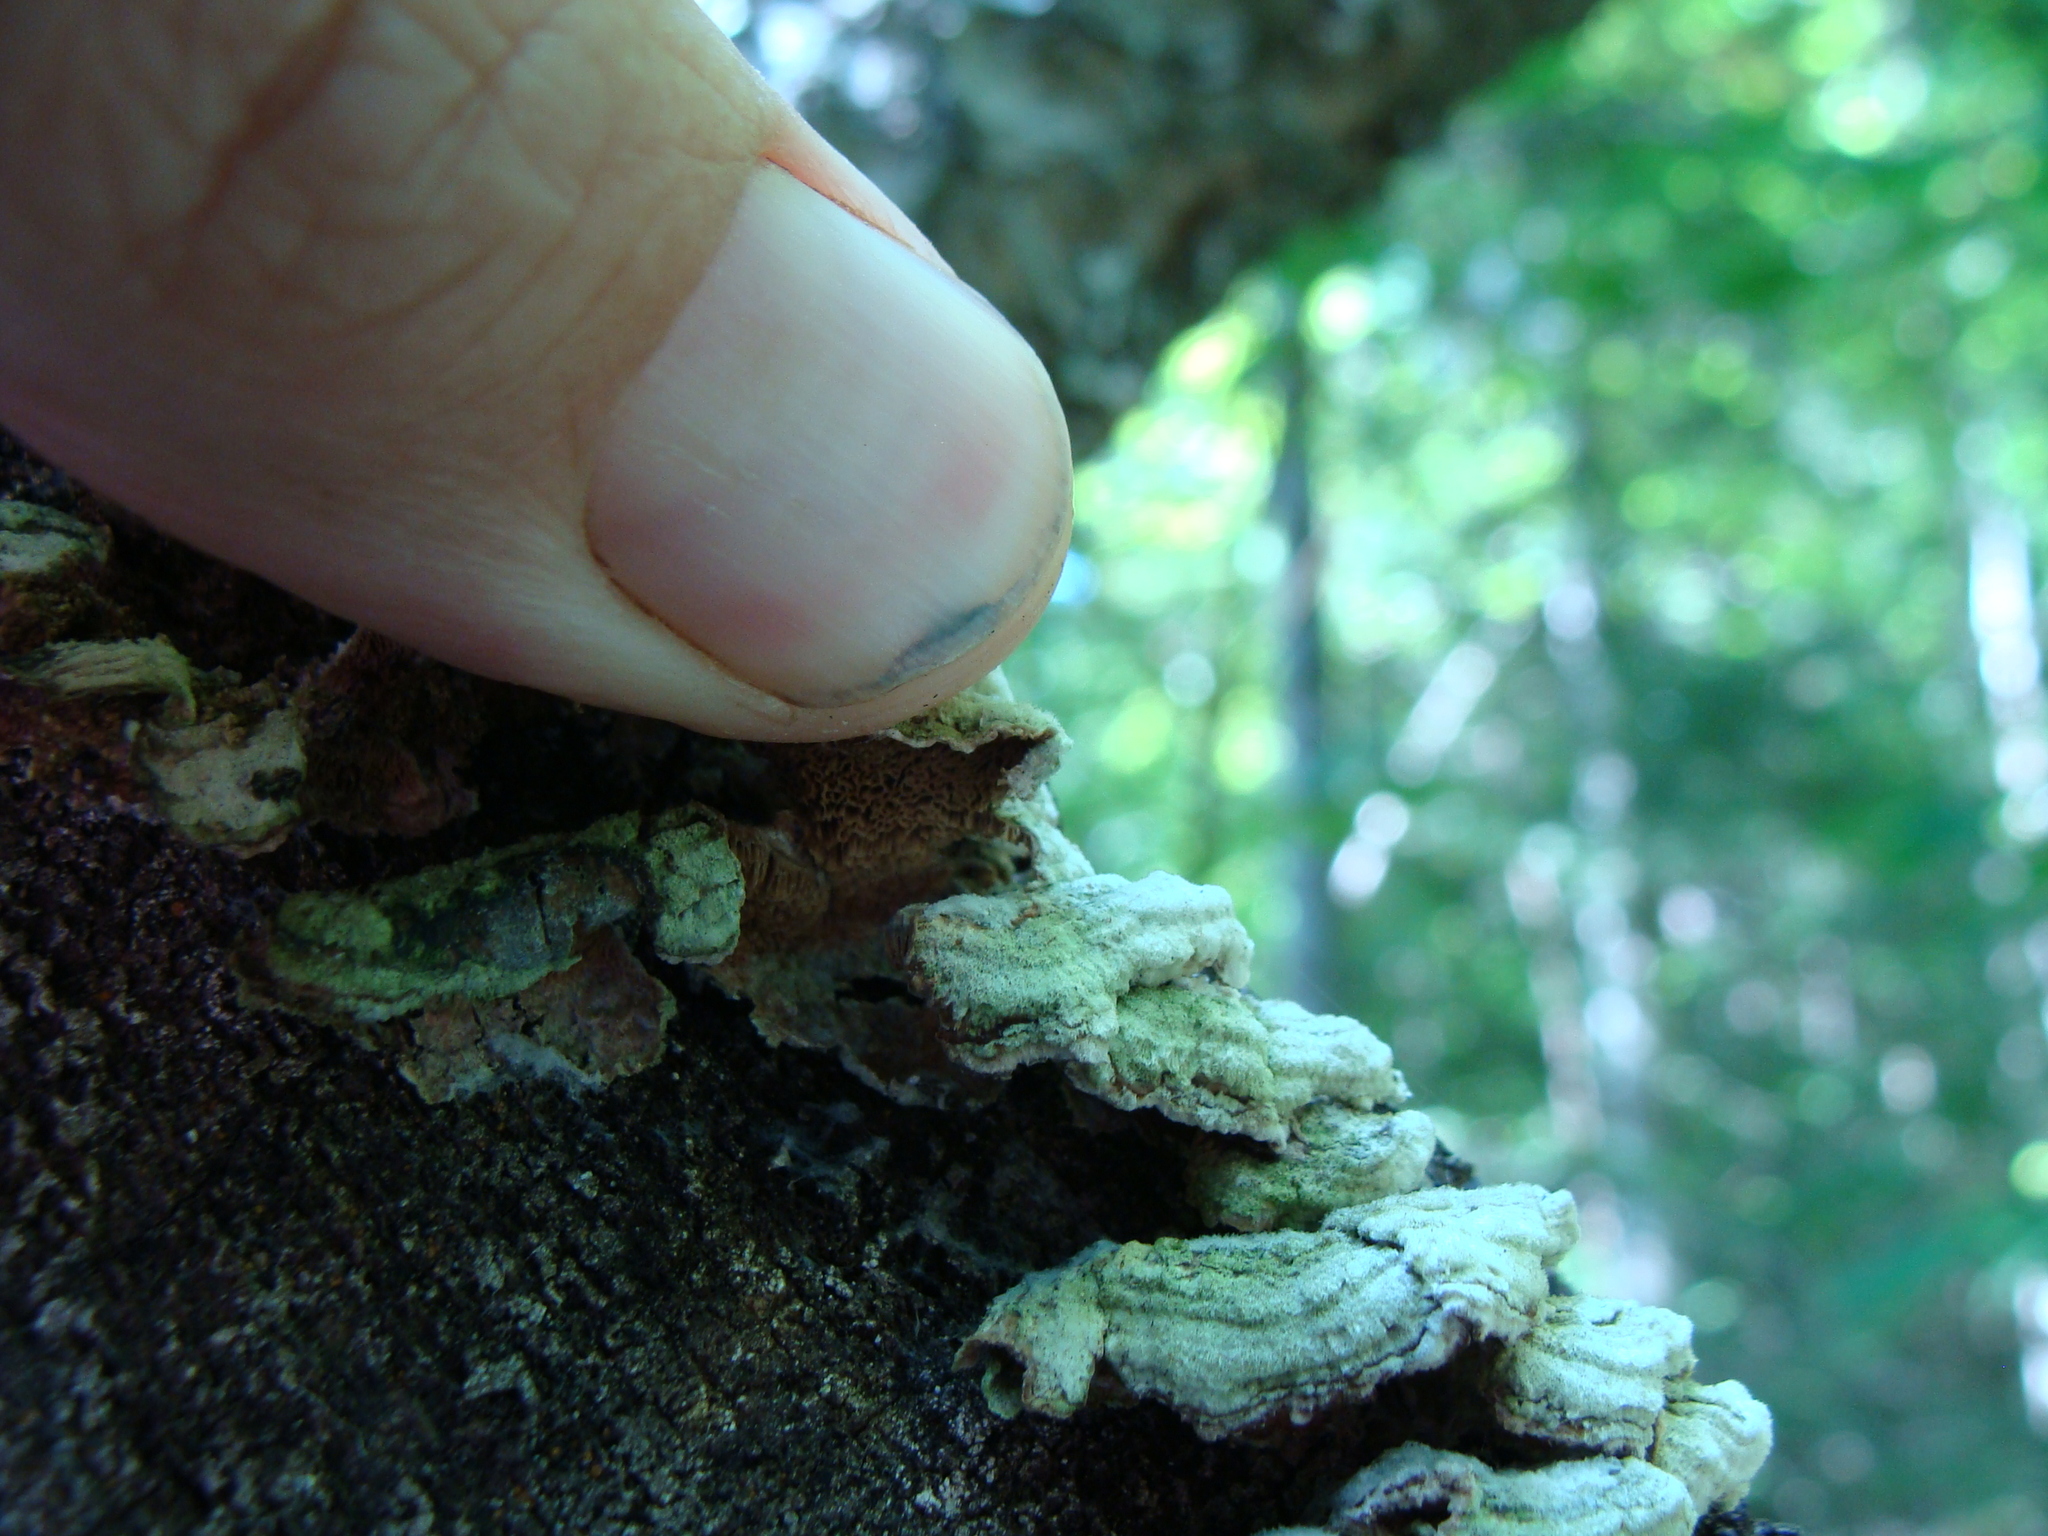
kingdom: Fungi
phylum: Basidiomycota
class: Agaricomycetes
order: Hymenochaetales
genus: Trichaptum
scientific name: Trichaptum biforme
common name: Violet-toothed polypore
